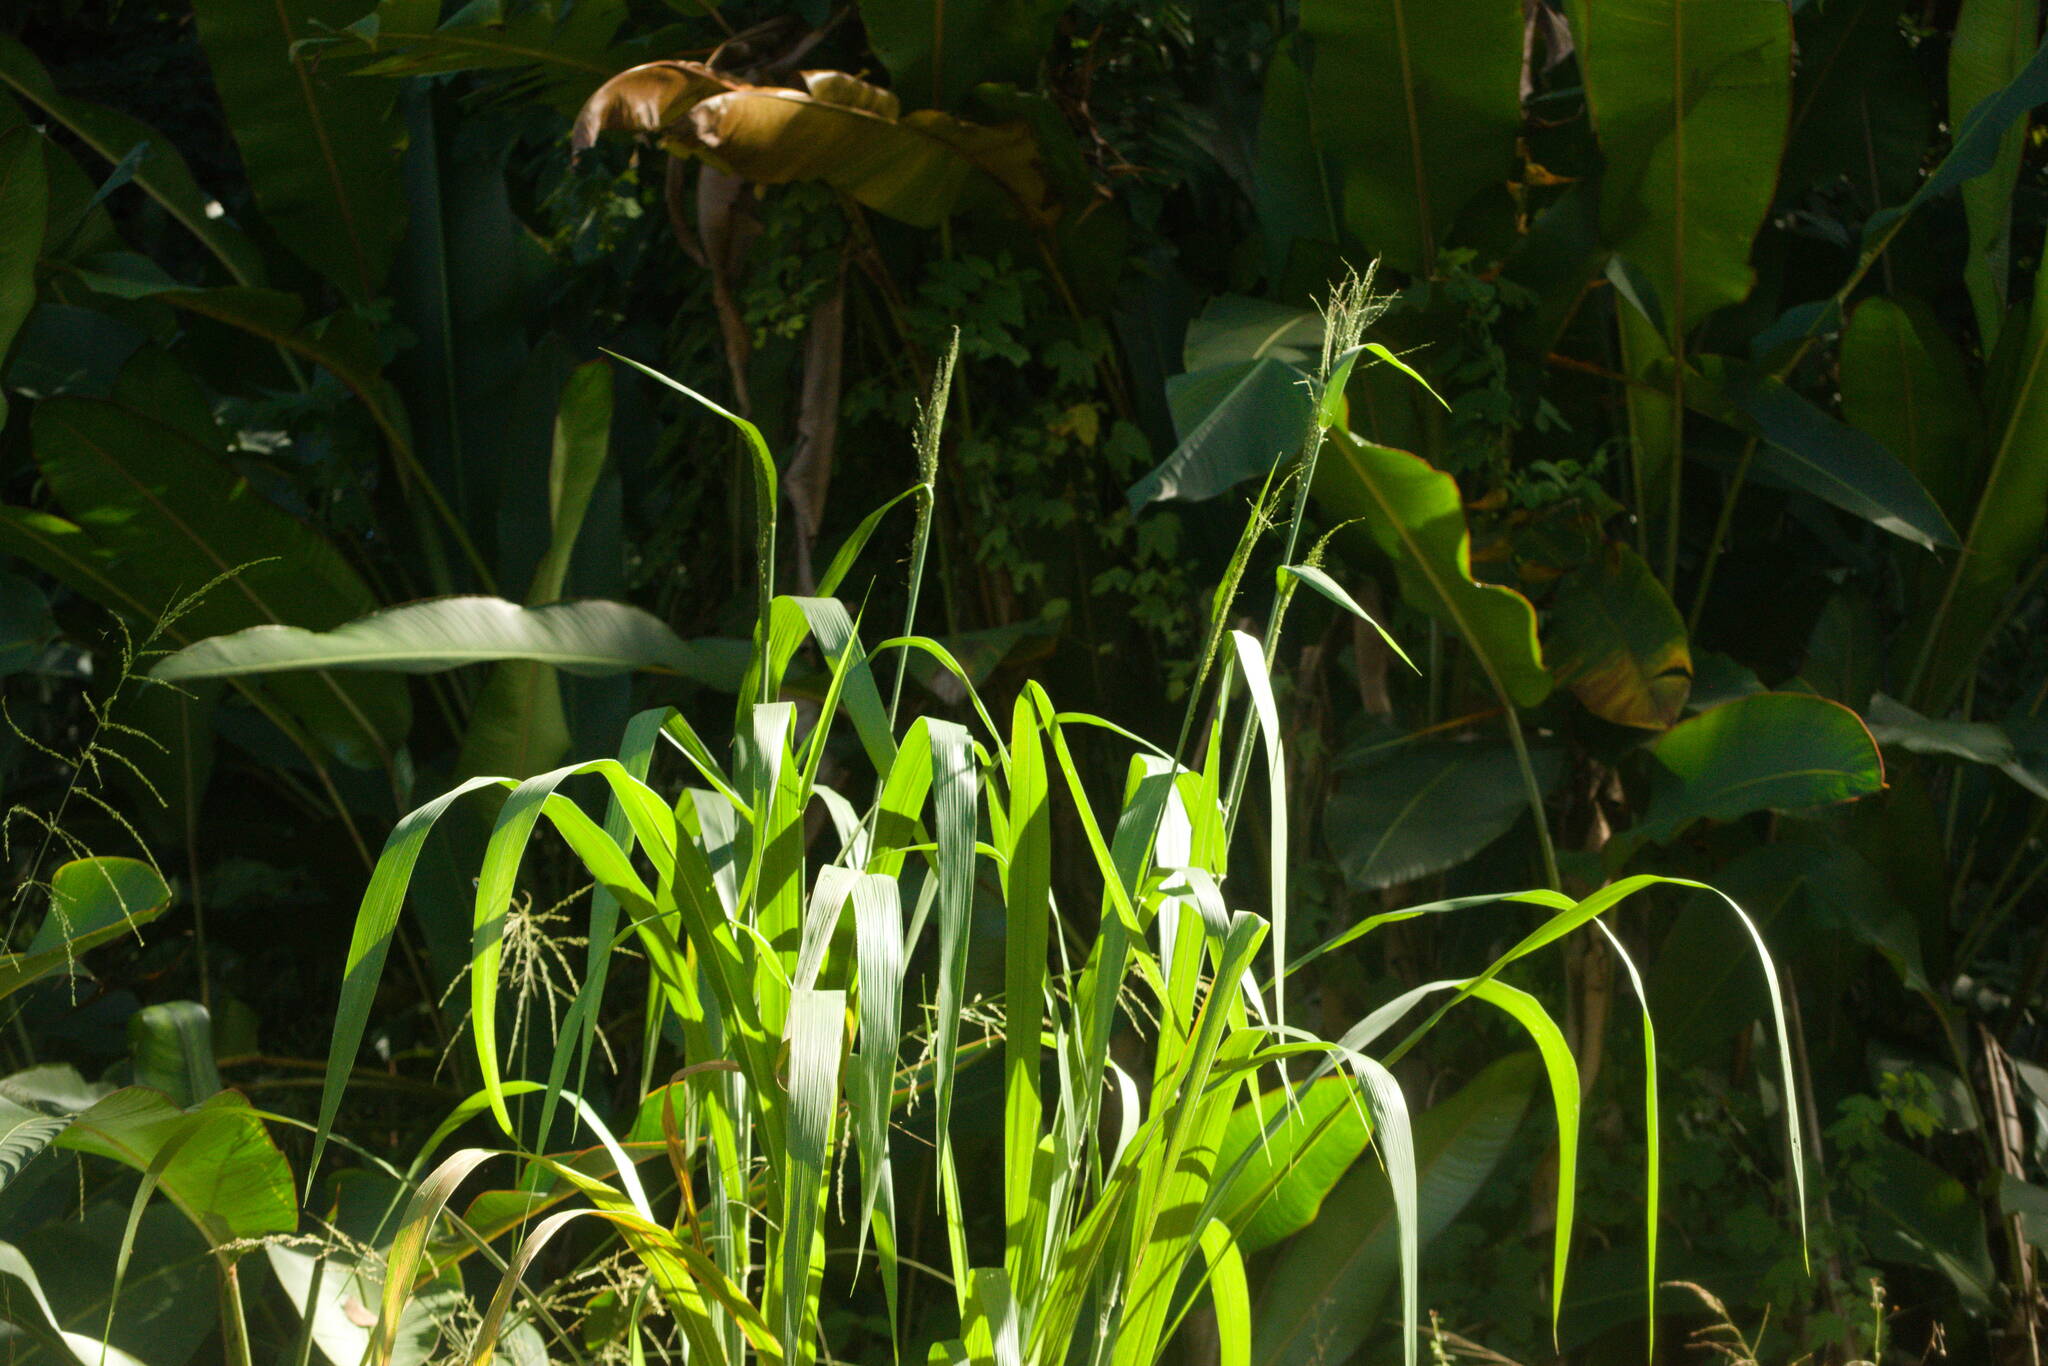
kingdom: Plantae
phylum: Tracheophyta
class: Liliopsida
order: Poales
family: Poaceae
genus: Megathyrsus
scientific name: Megathyrsus maximus
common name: Guineagrass
